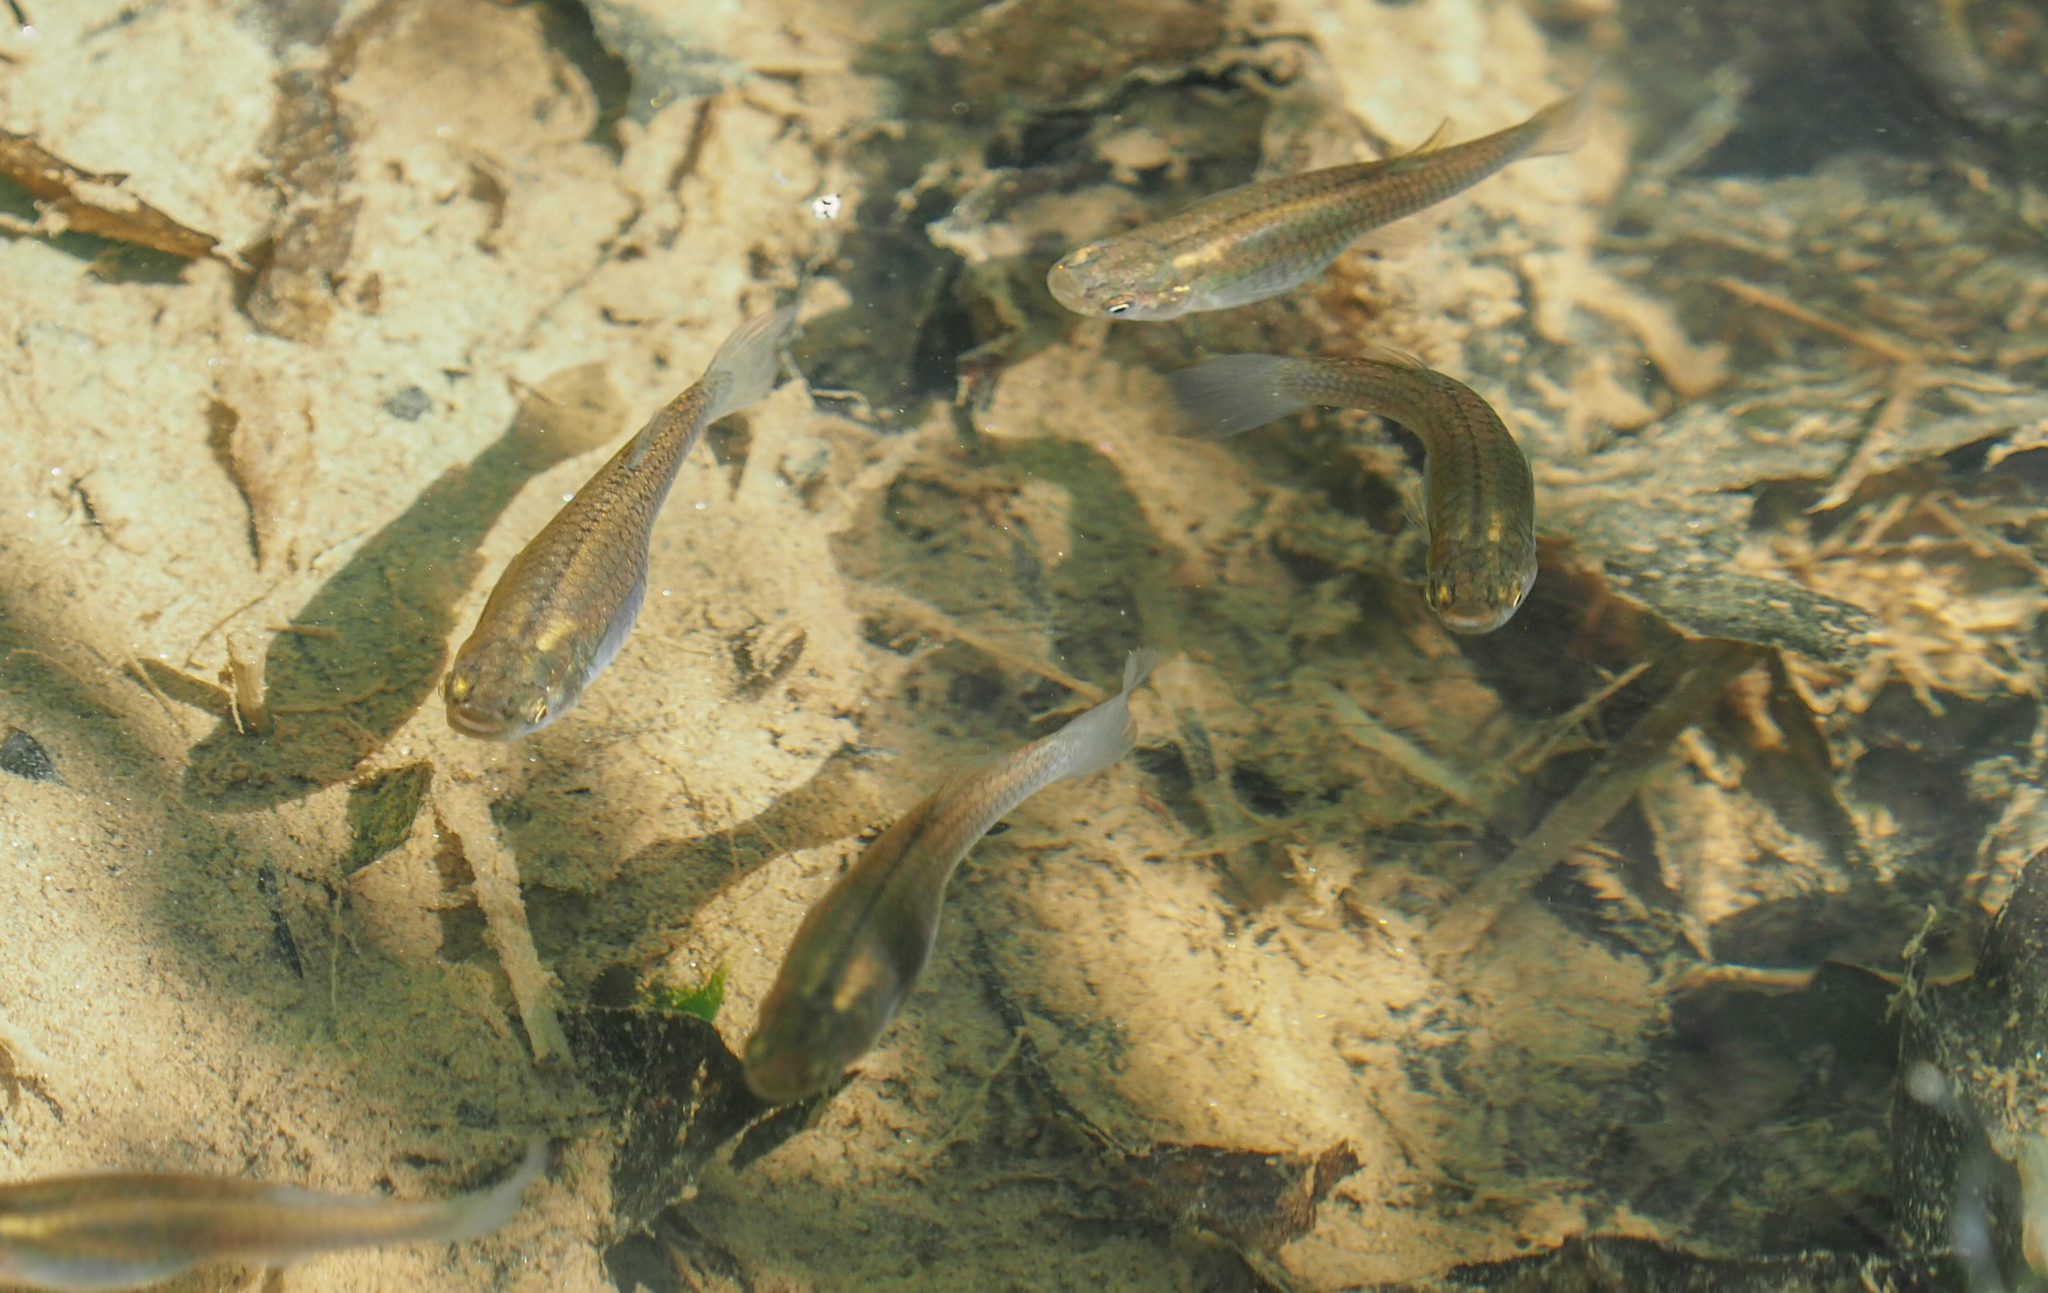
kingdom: Animalia
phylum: Chordata
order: Cyprinodontiformes
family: Poeciliidae
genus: Gambusia
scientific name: Gambusia holbrooki
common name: Eastern mosquitofish
